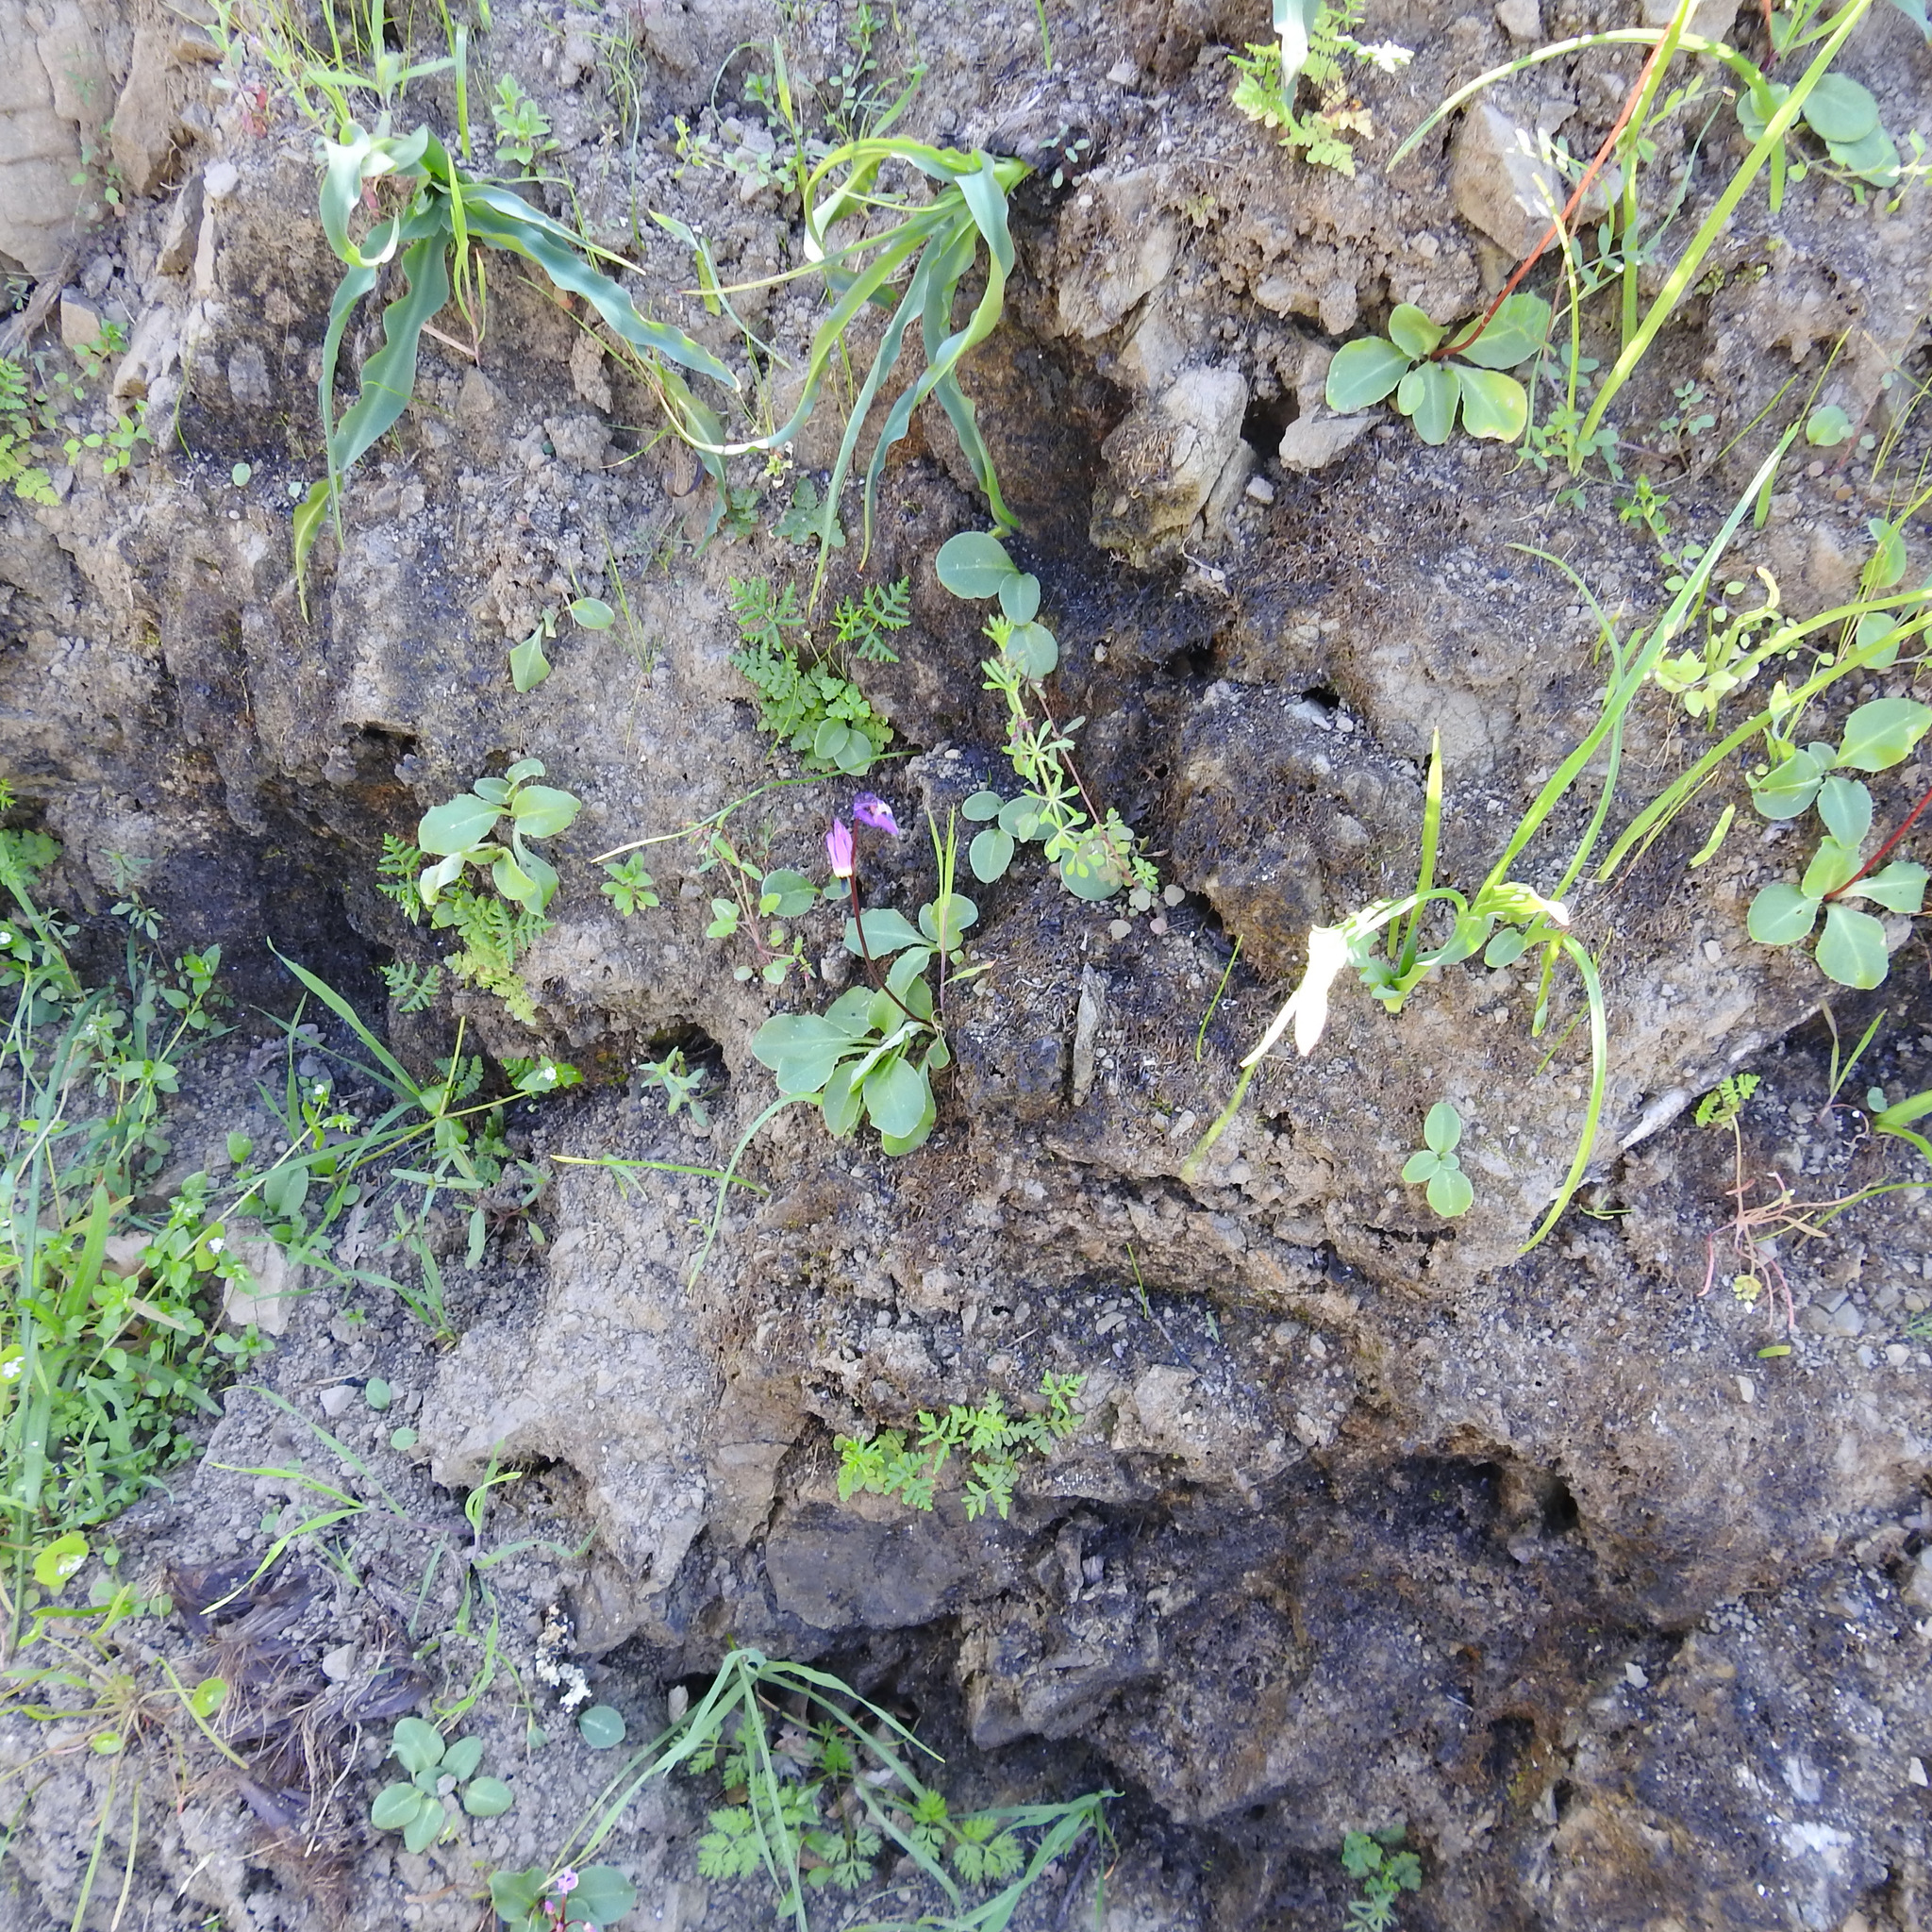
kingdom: Plantae
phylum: Tracheophyta
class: Magnoliopsida
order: Ericales
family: Primulaceae
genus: Dodecatheon
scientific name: Dodecatheon hendersonii
